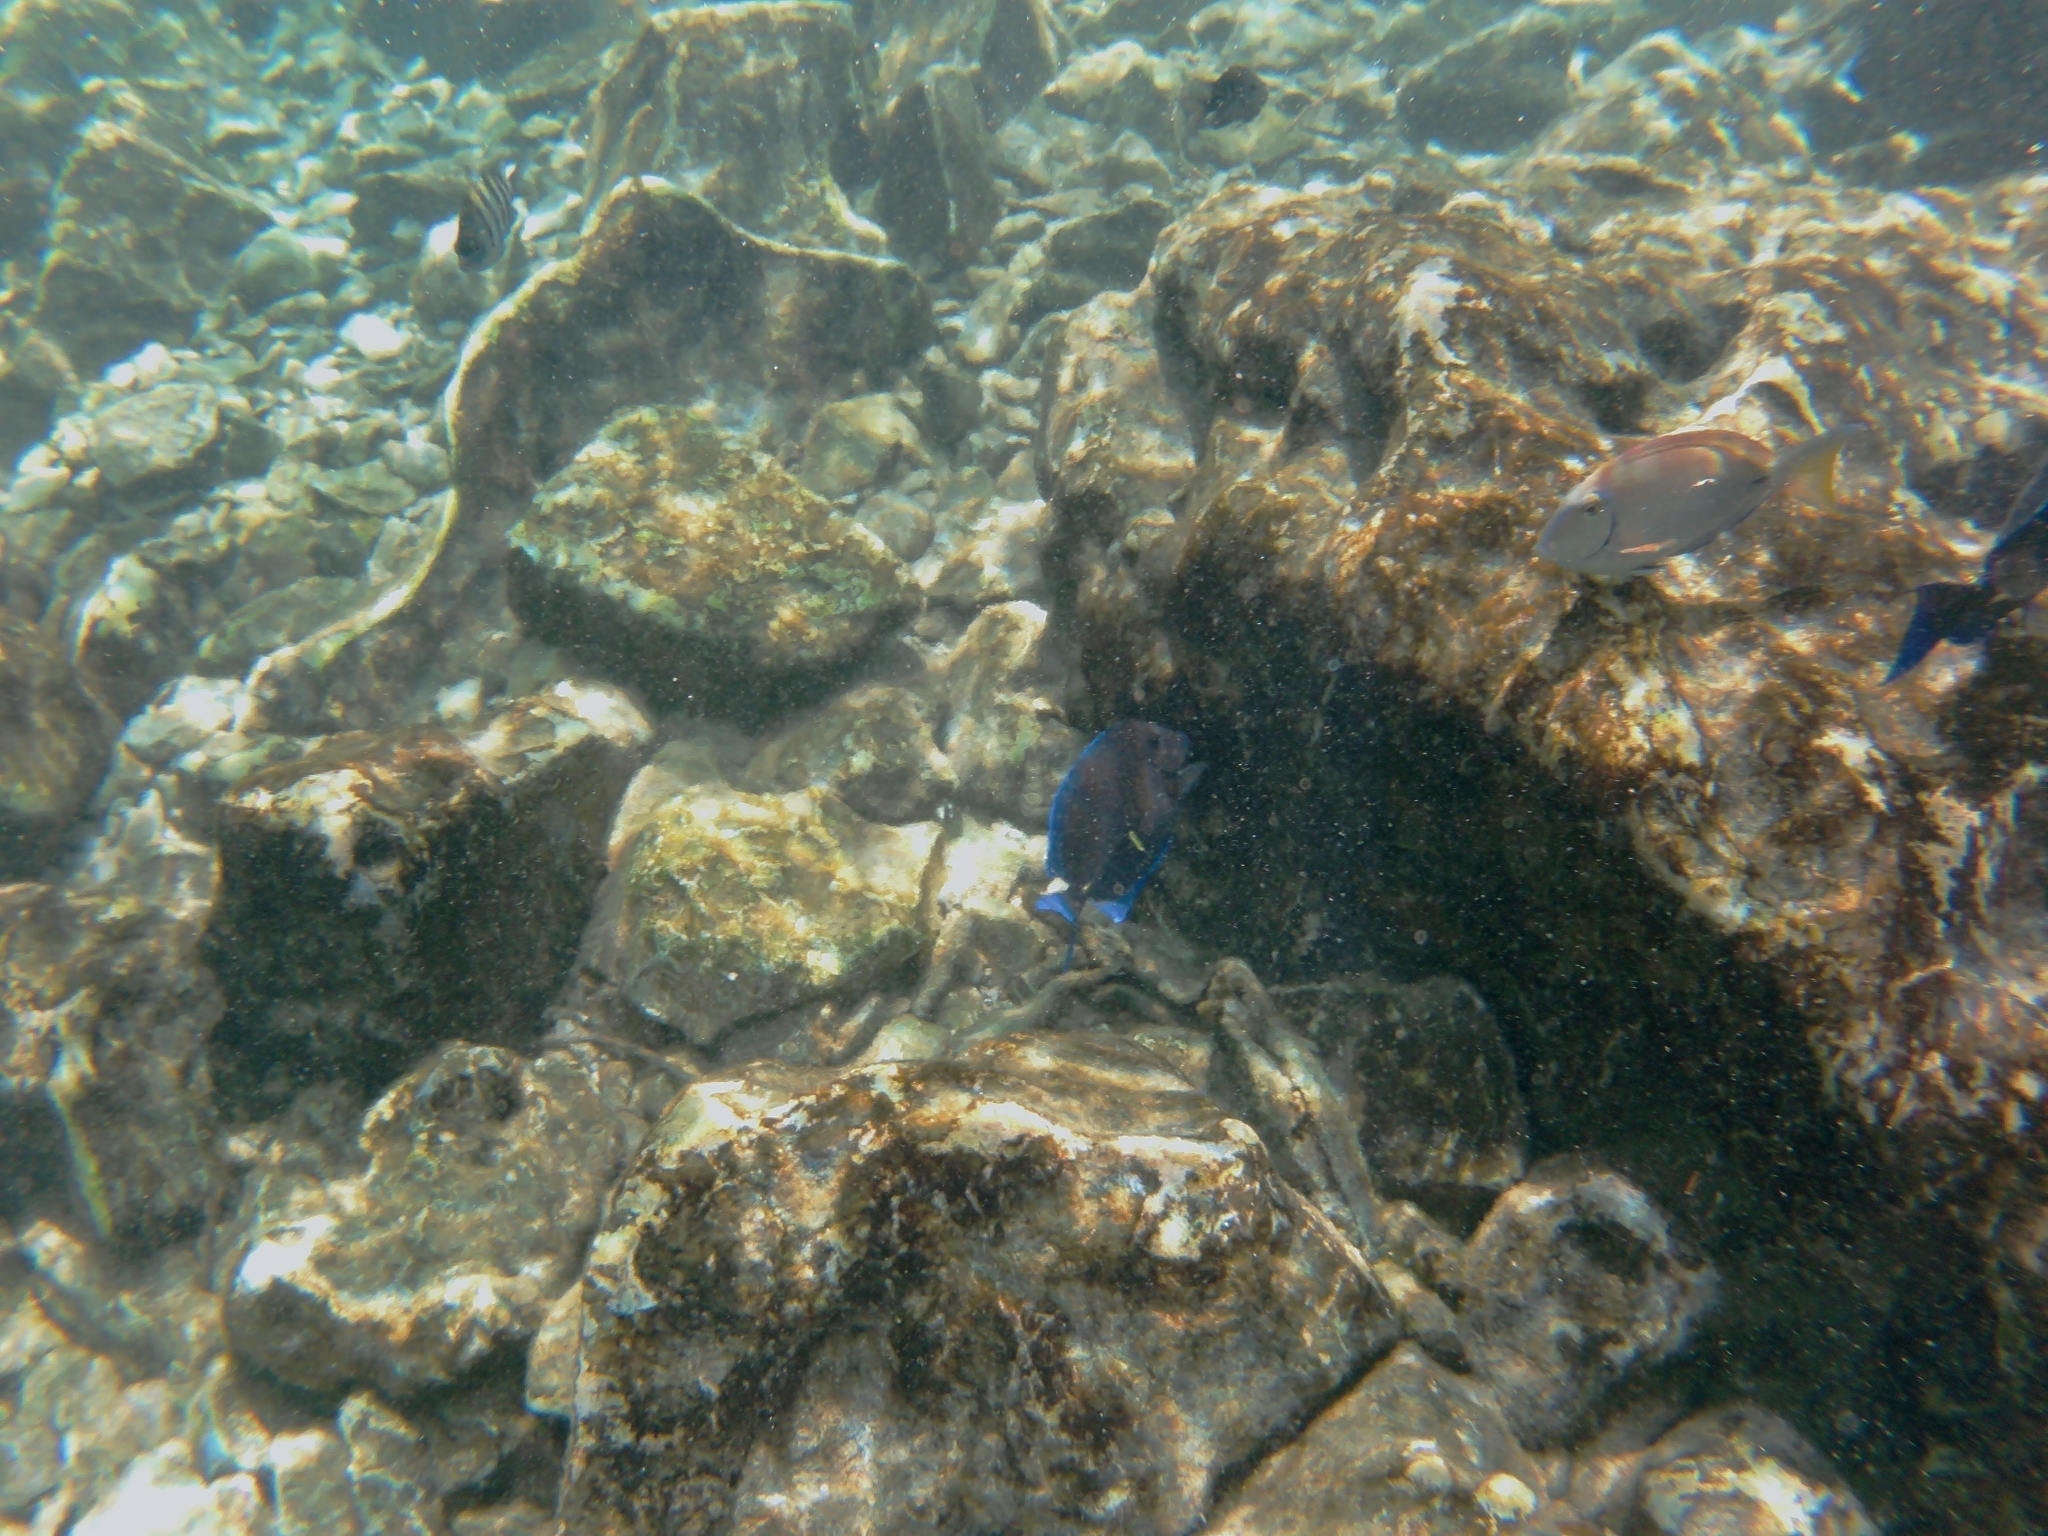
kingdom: Animalia
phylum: Chordata
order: Perciformes
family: Acanthuridae
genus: Acanthurus
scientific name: Acanthurus coeruleus
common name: Blue tang
